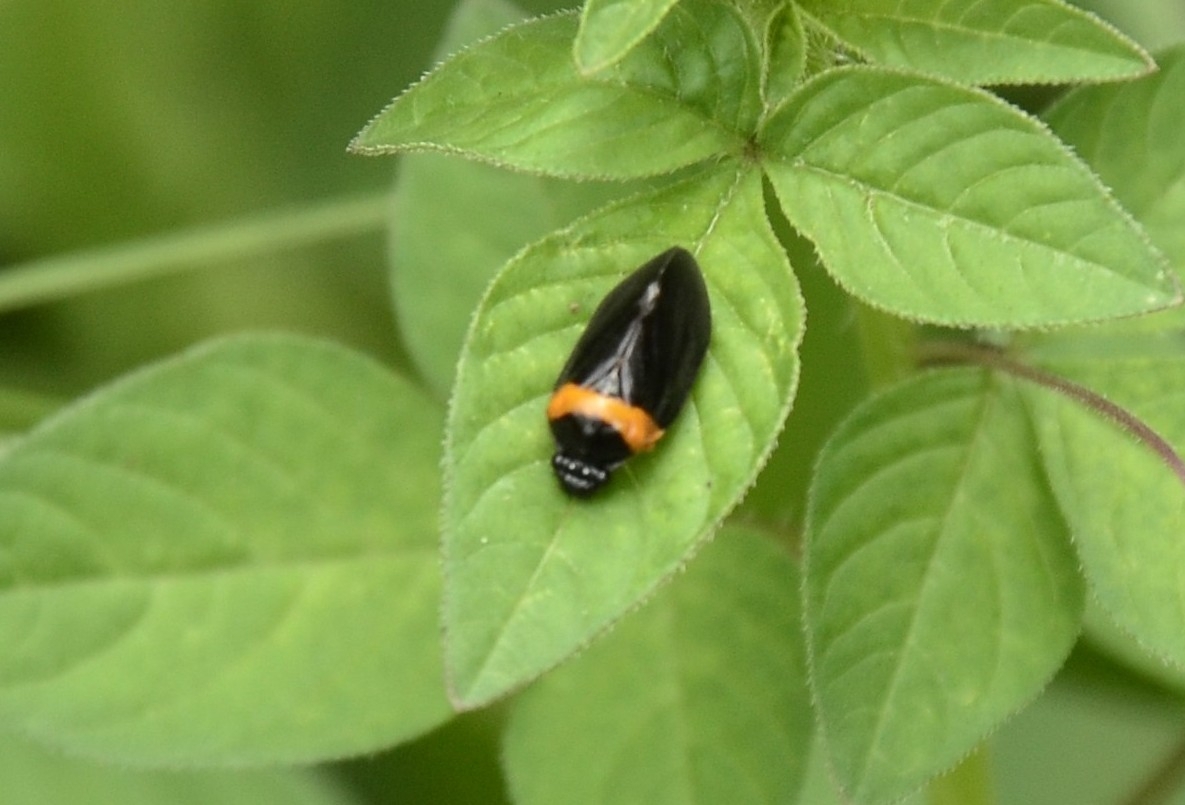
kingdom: Animalia
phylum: Arthropoda
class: Insecta
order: Hemiptera
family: Cercopidae
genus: Phymatostetha
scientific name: Phymatostetha deschampsi
